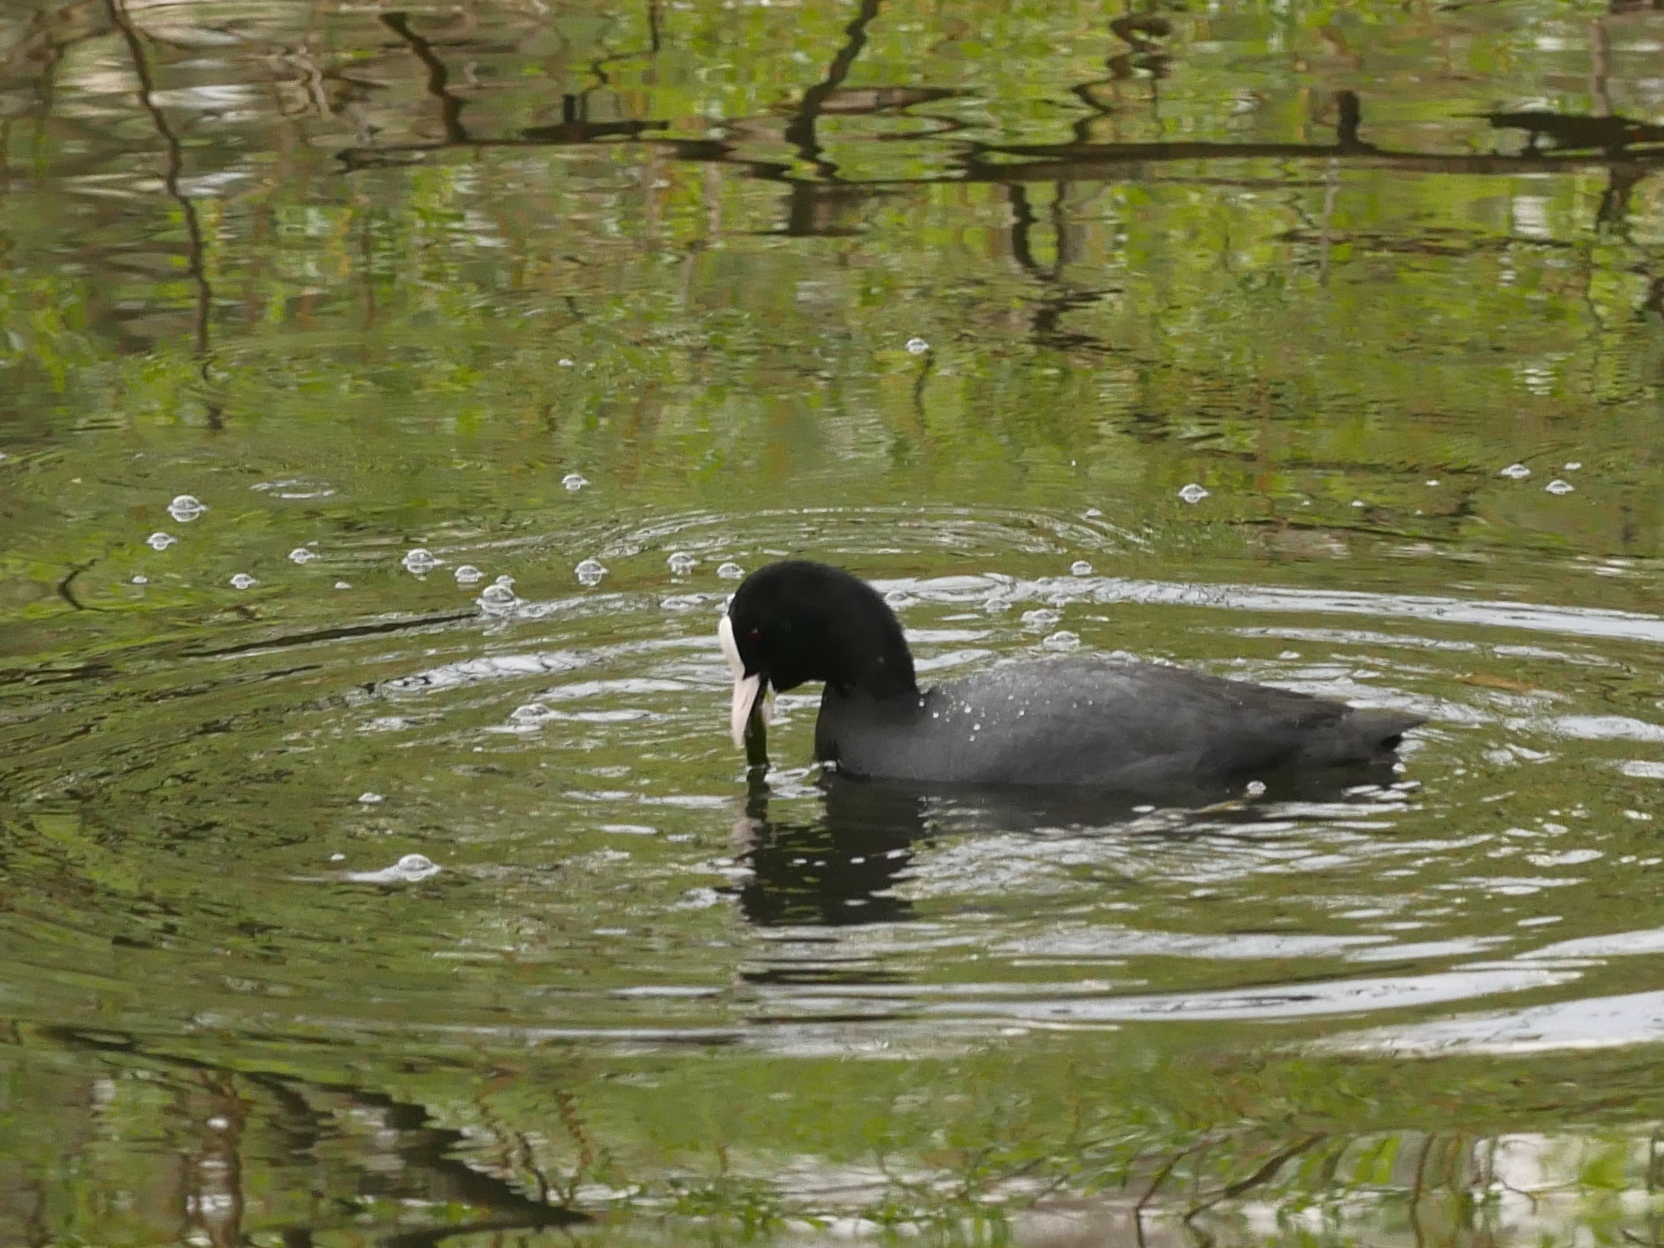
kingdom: Animalia
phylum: Chordata
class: Aves
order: Gruiformes
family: Rallidae
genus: Fulica
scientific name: Fulica atra
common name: Eurasian coot
